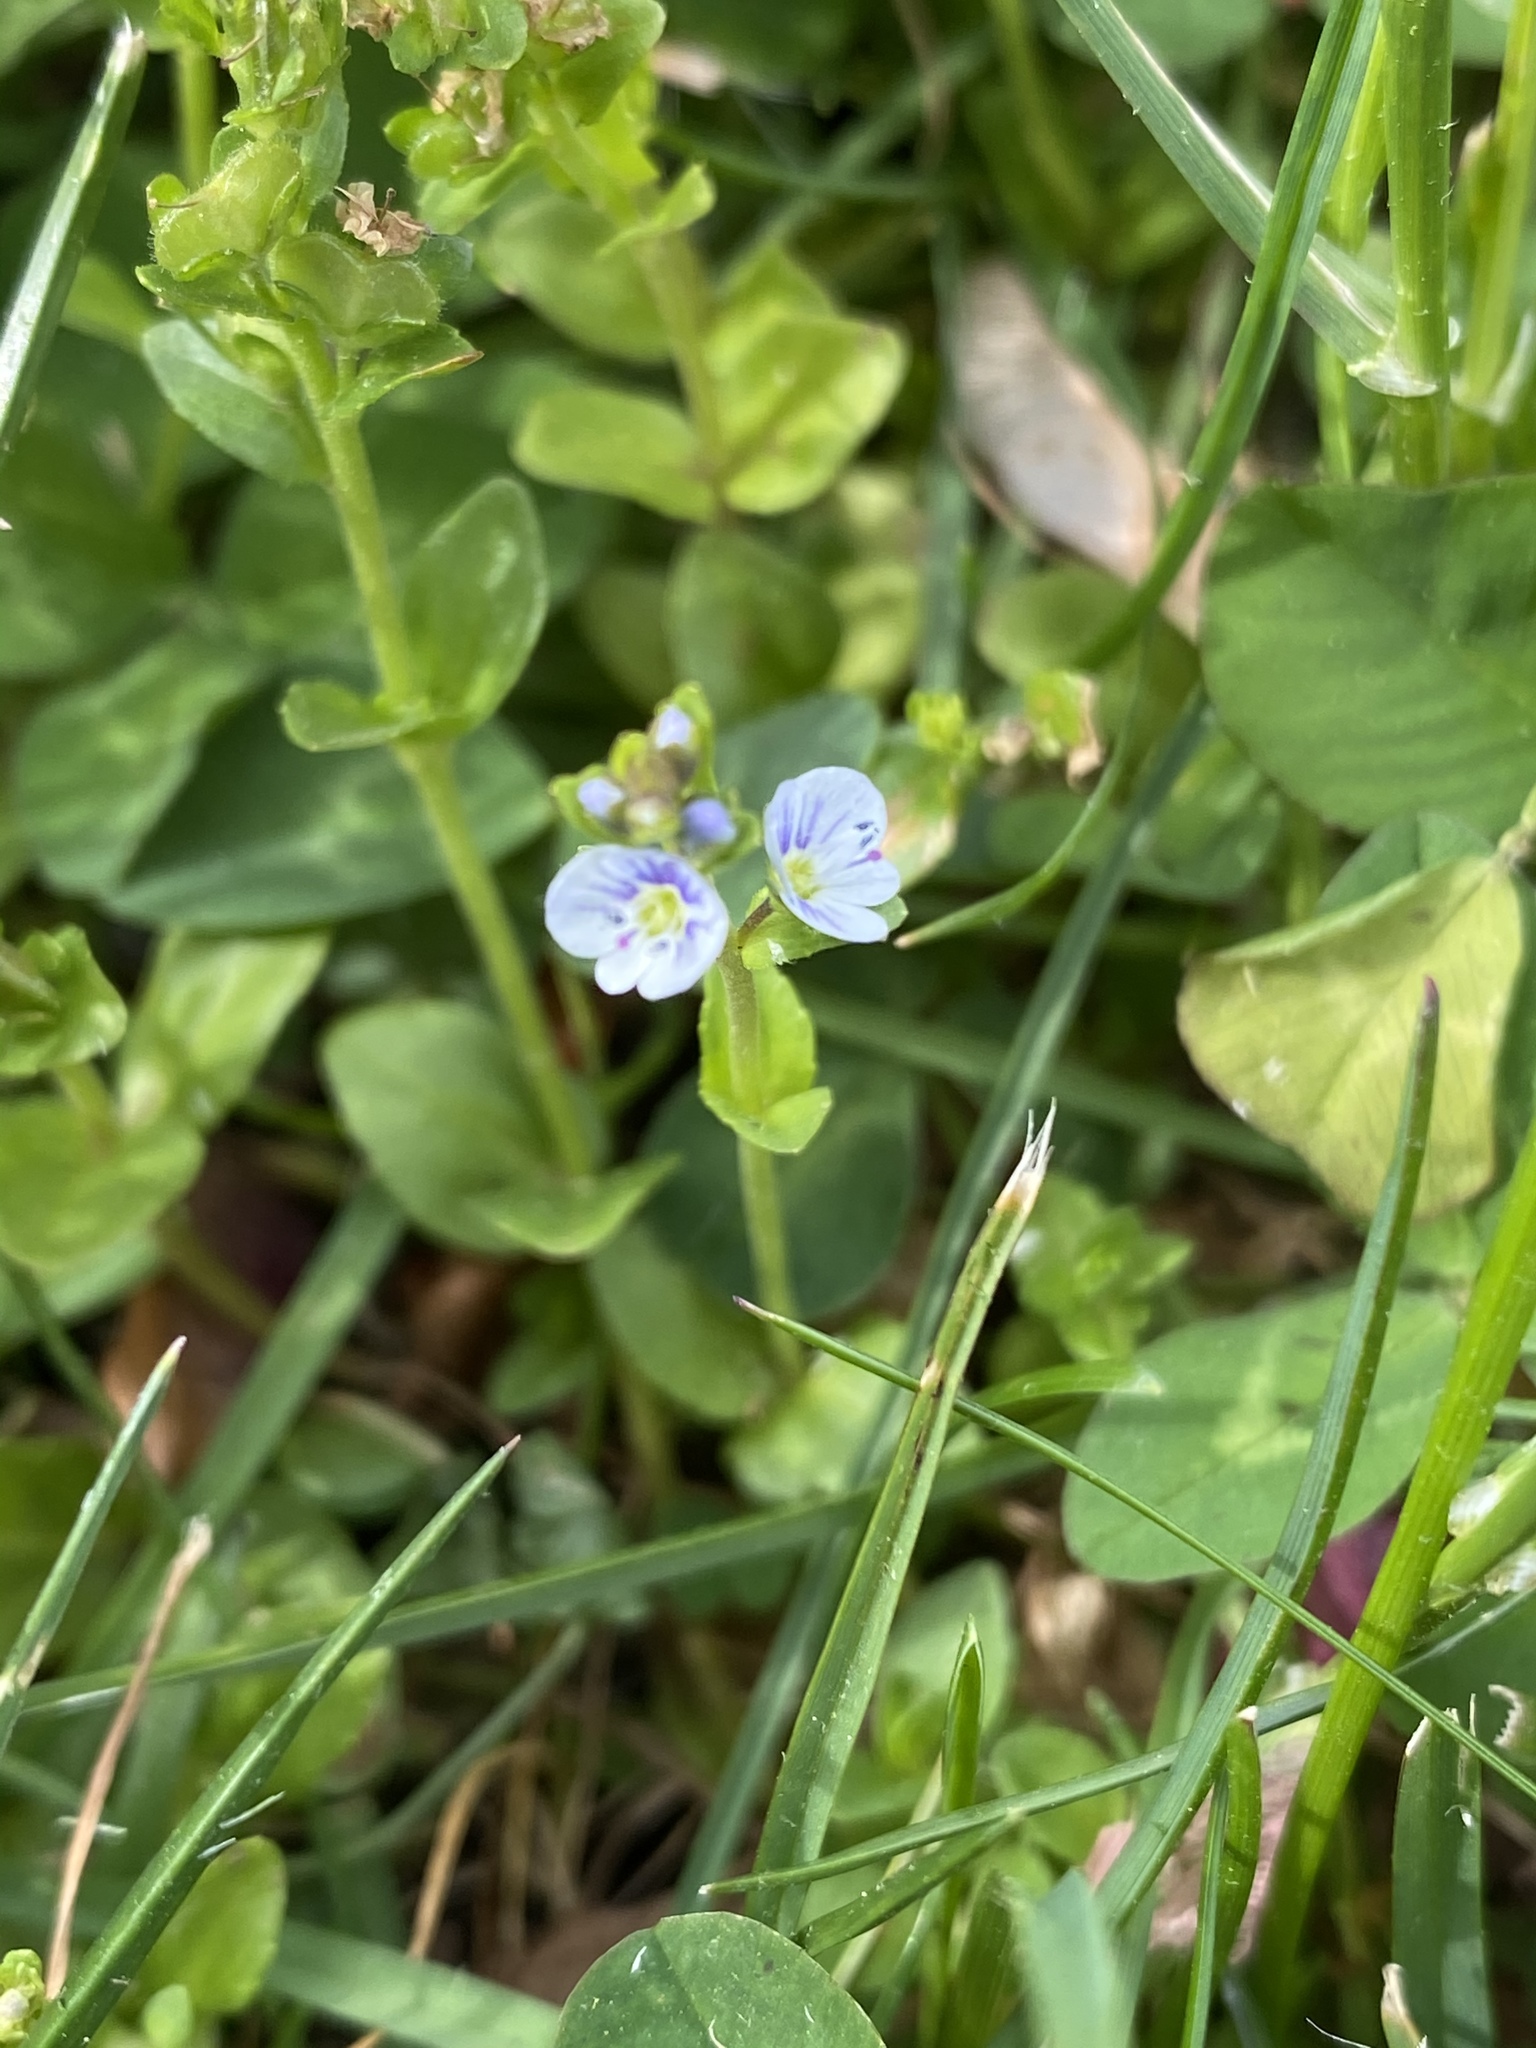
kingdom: Plantae
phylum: Tracheophyta
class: Magnoliopsida
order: Lamiales
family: Plantaginaceae
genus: Veronica
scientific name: Veronica serpyllifolia
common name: Thyme-leaved speedwell
